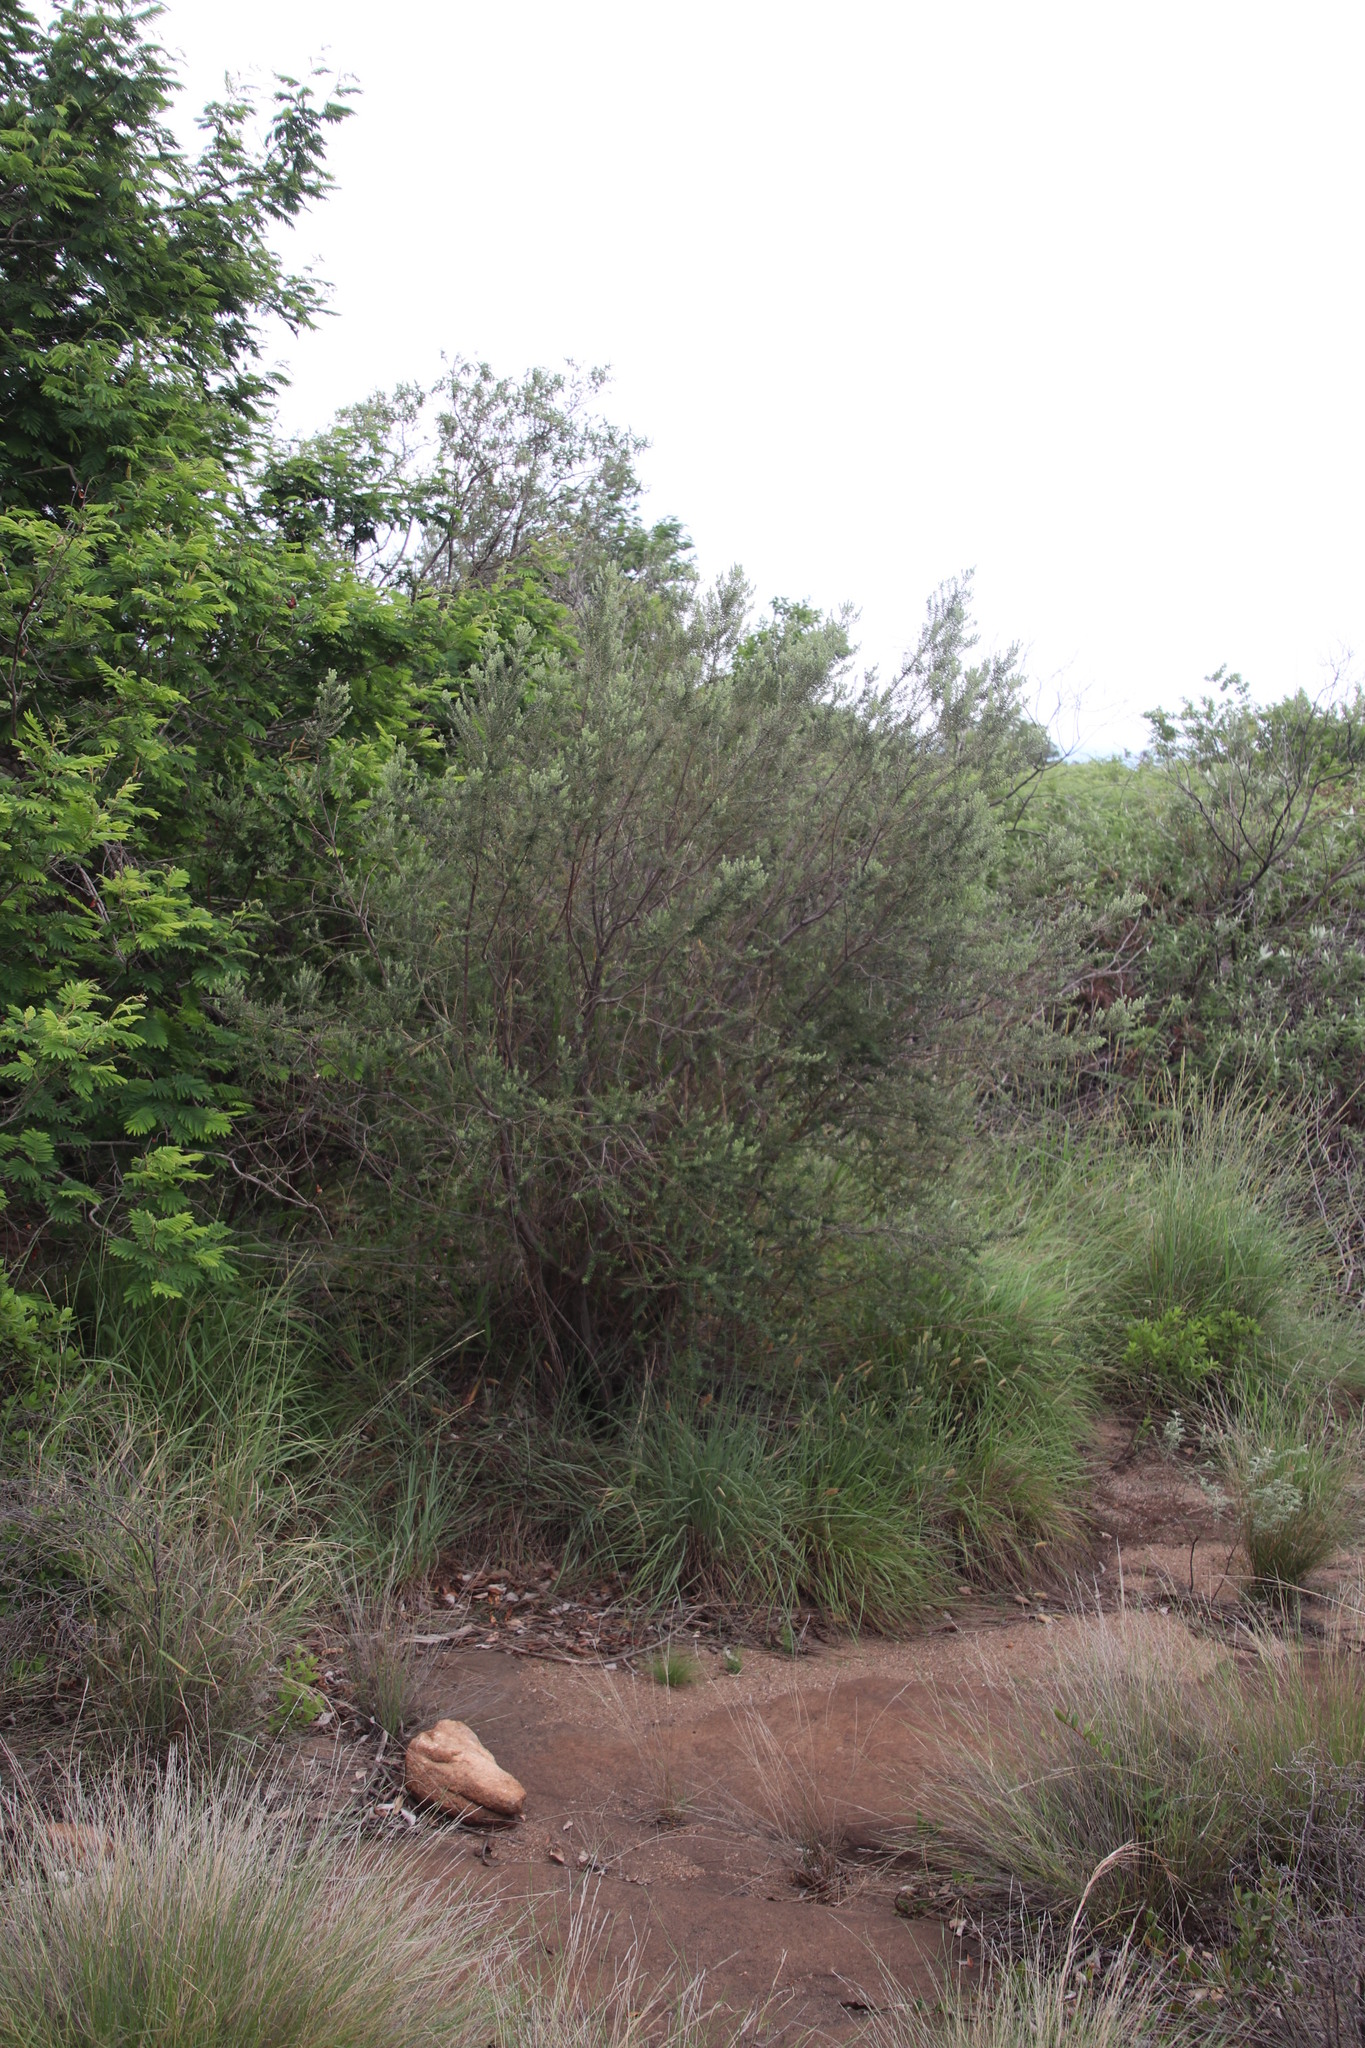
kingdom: Plantae
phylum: Tracheophyta
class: Magnoliopsida
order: Rosales
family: Rhamnaceae
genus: Phylica
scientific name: Phylica paniculata
